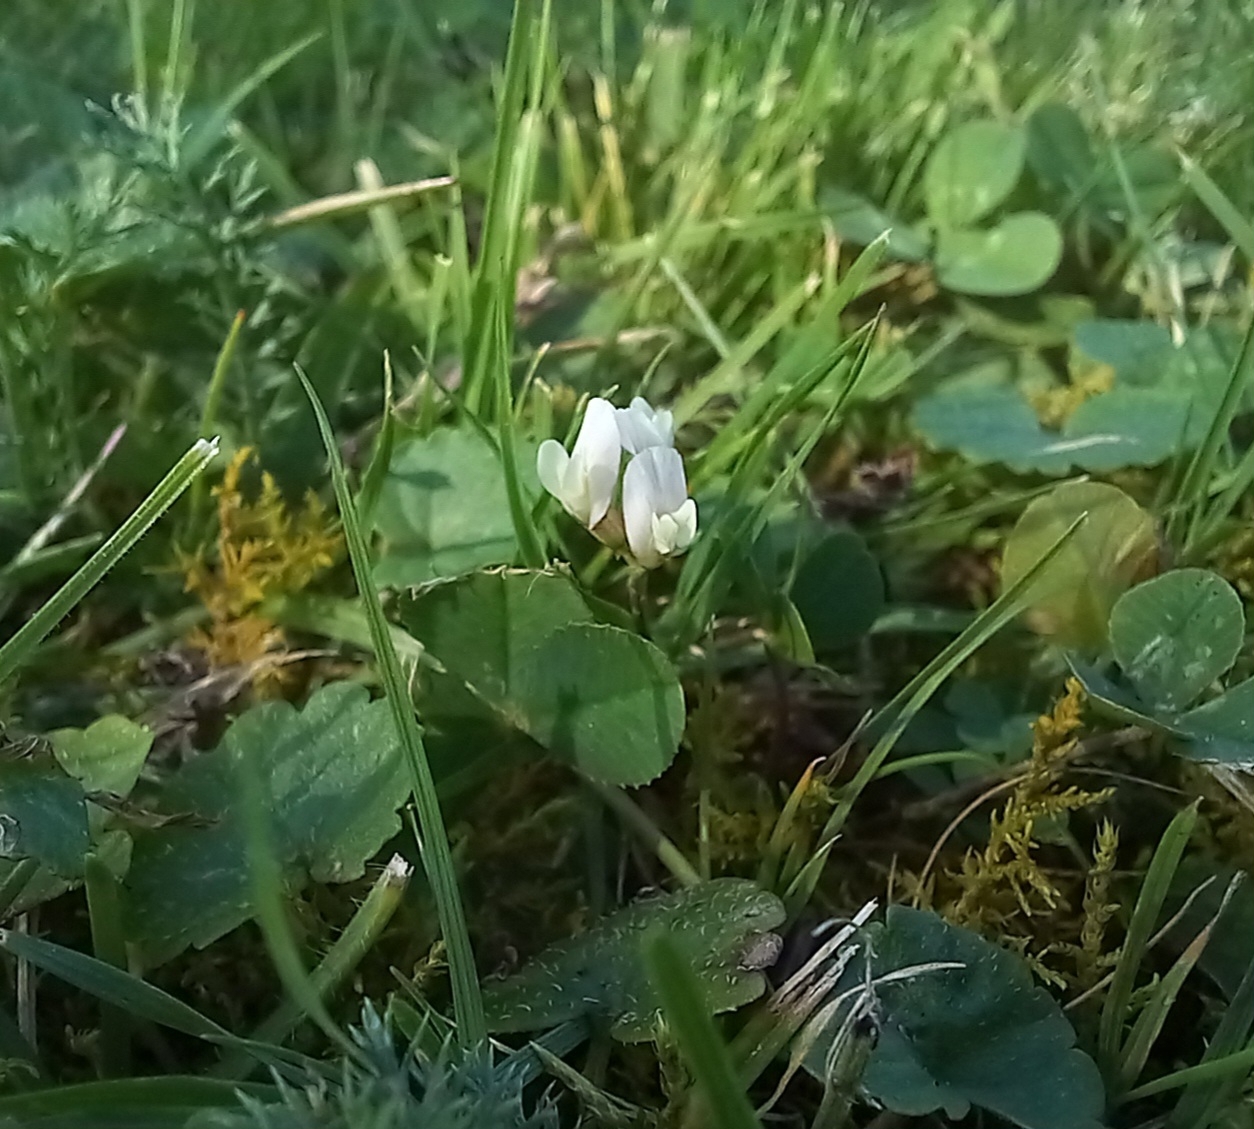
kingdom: Plantae
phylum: Tracheophyta
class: Magnoliopsida
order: Fabales
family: Fabaceae
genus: Trifolium
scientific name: Trifolium repens
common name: White clover
